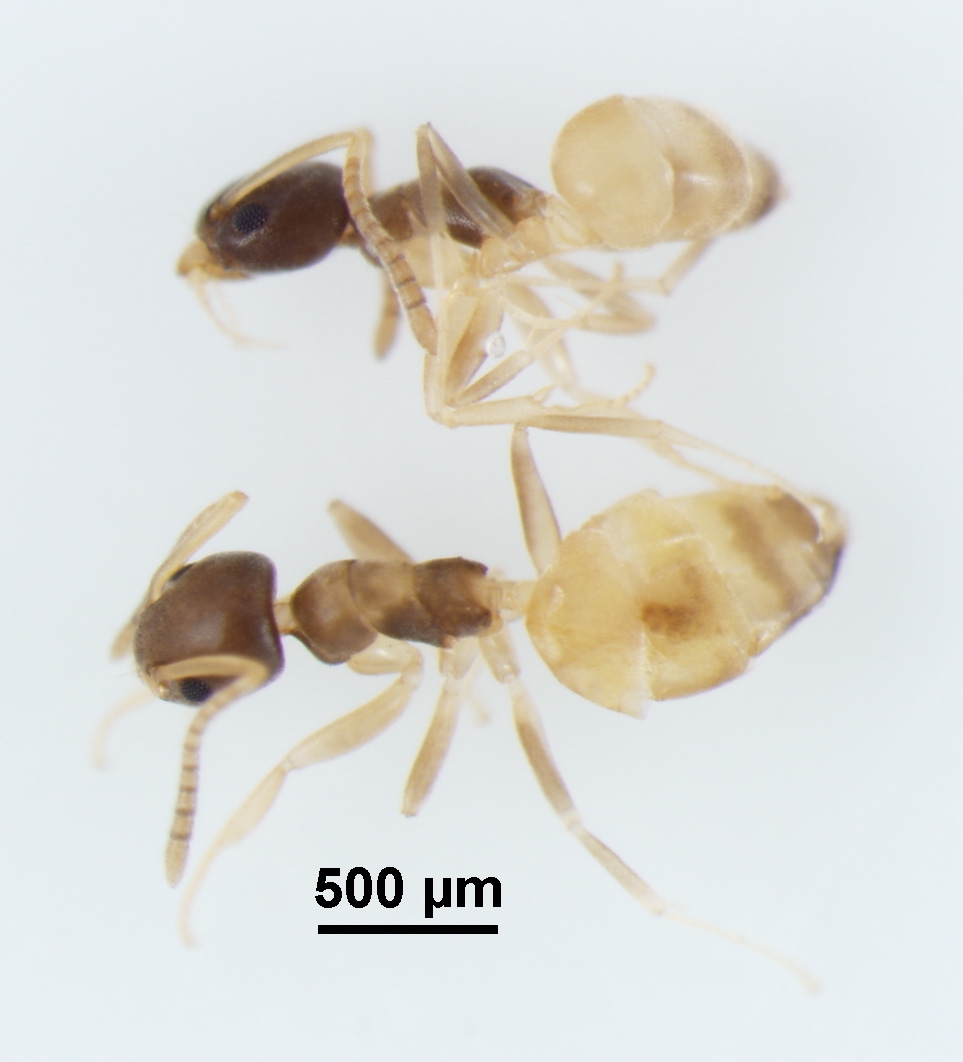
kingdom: Animalia
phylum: Arthropoda
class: Insecta
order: Hymenoptera
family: Formicidae
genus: Tapinoma
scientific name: Tapinoma melanocephalum
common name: Ghost ant
